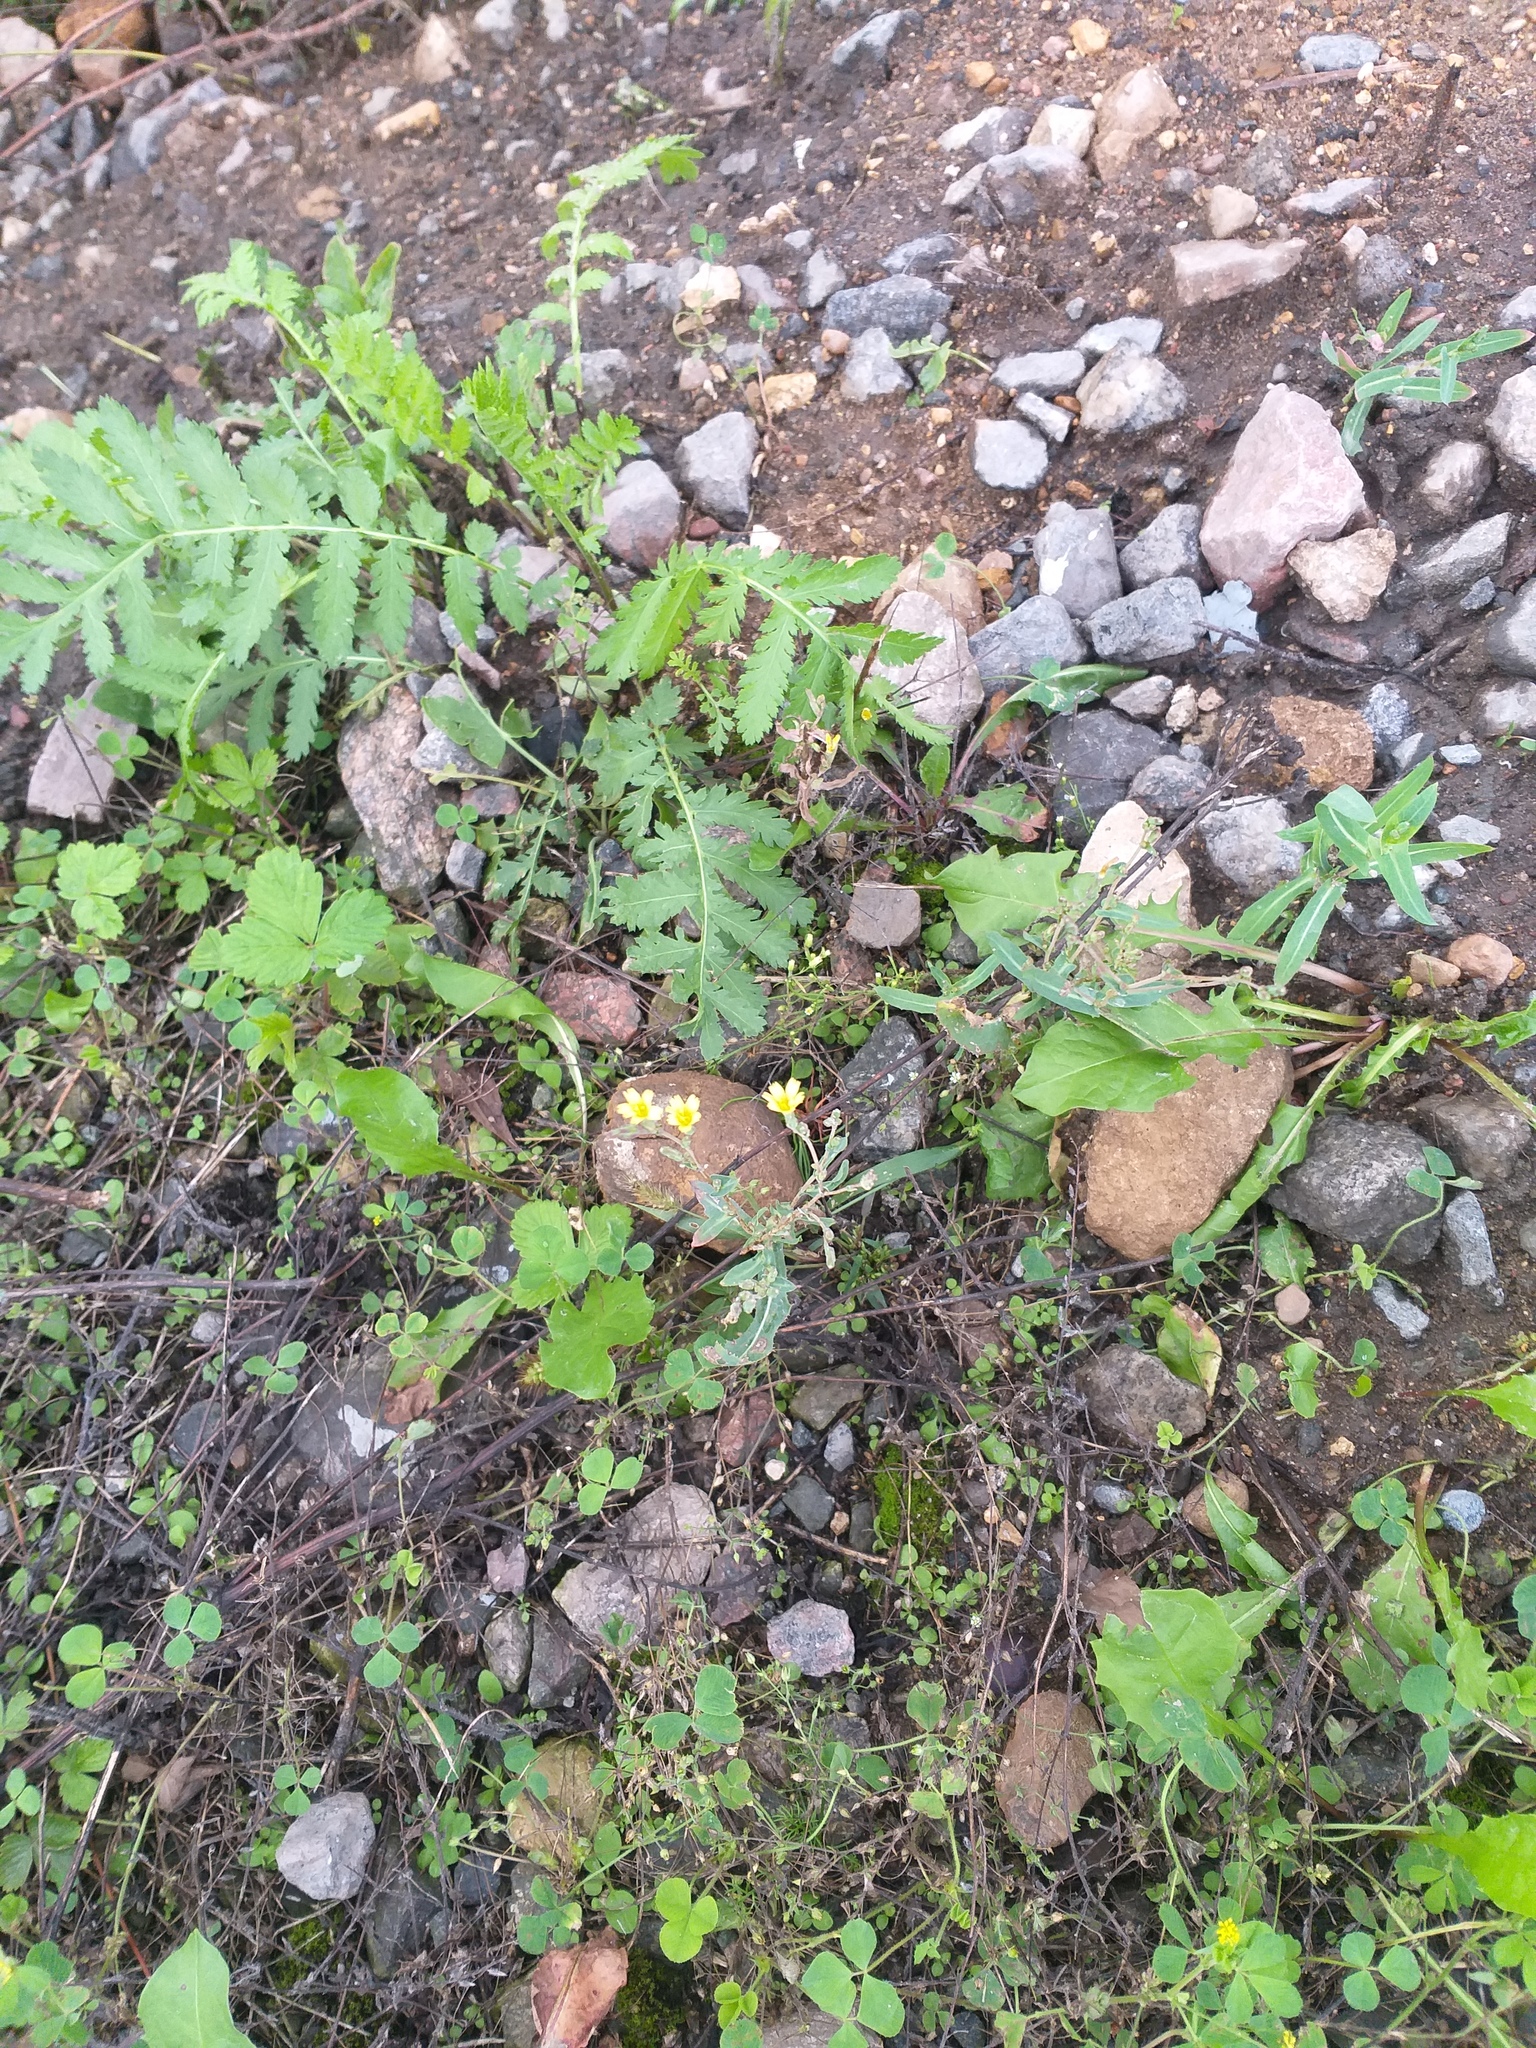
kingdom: Plantae
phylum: Tracheophyta
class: Magnoliopsida
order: Asterales
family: Asteraceae
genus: Lactuca
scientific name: Lactuca serriola
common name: Prickly lettuce
